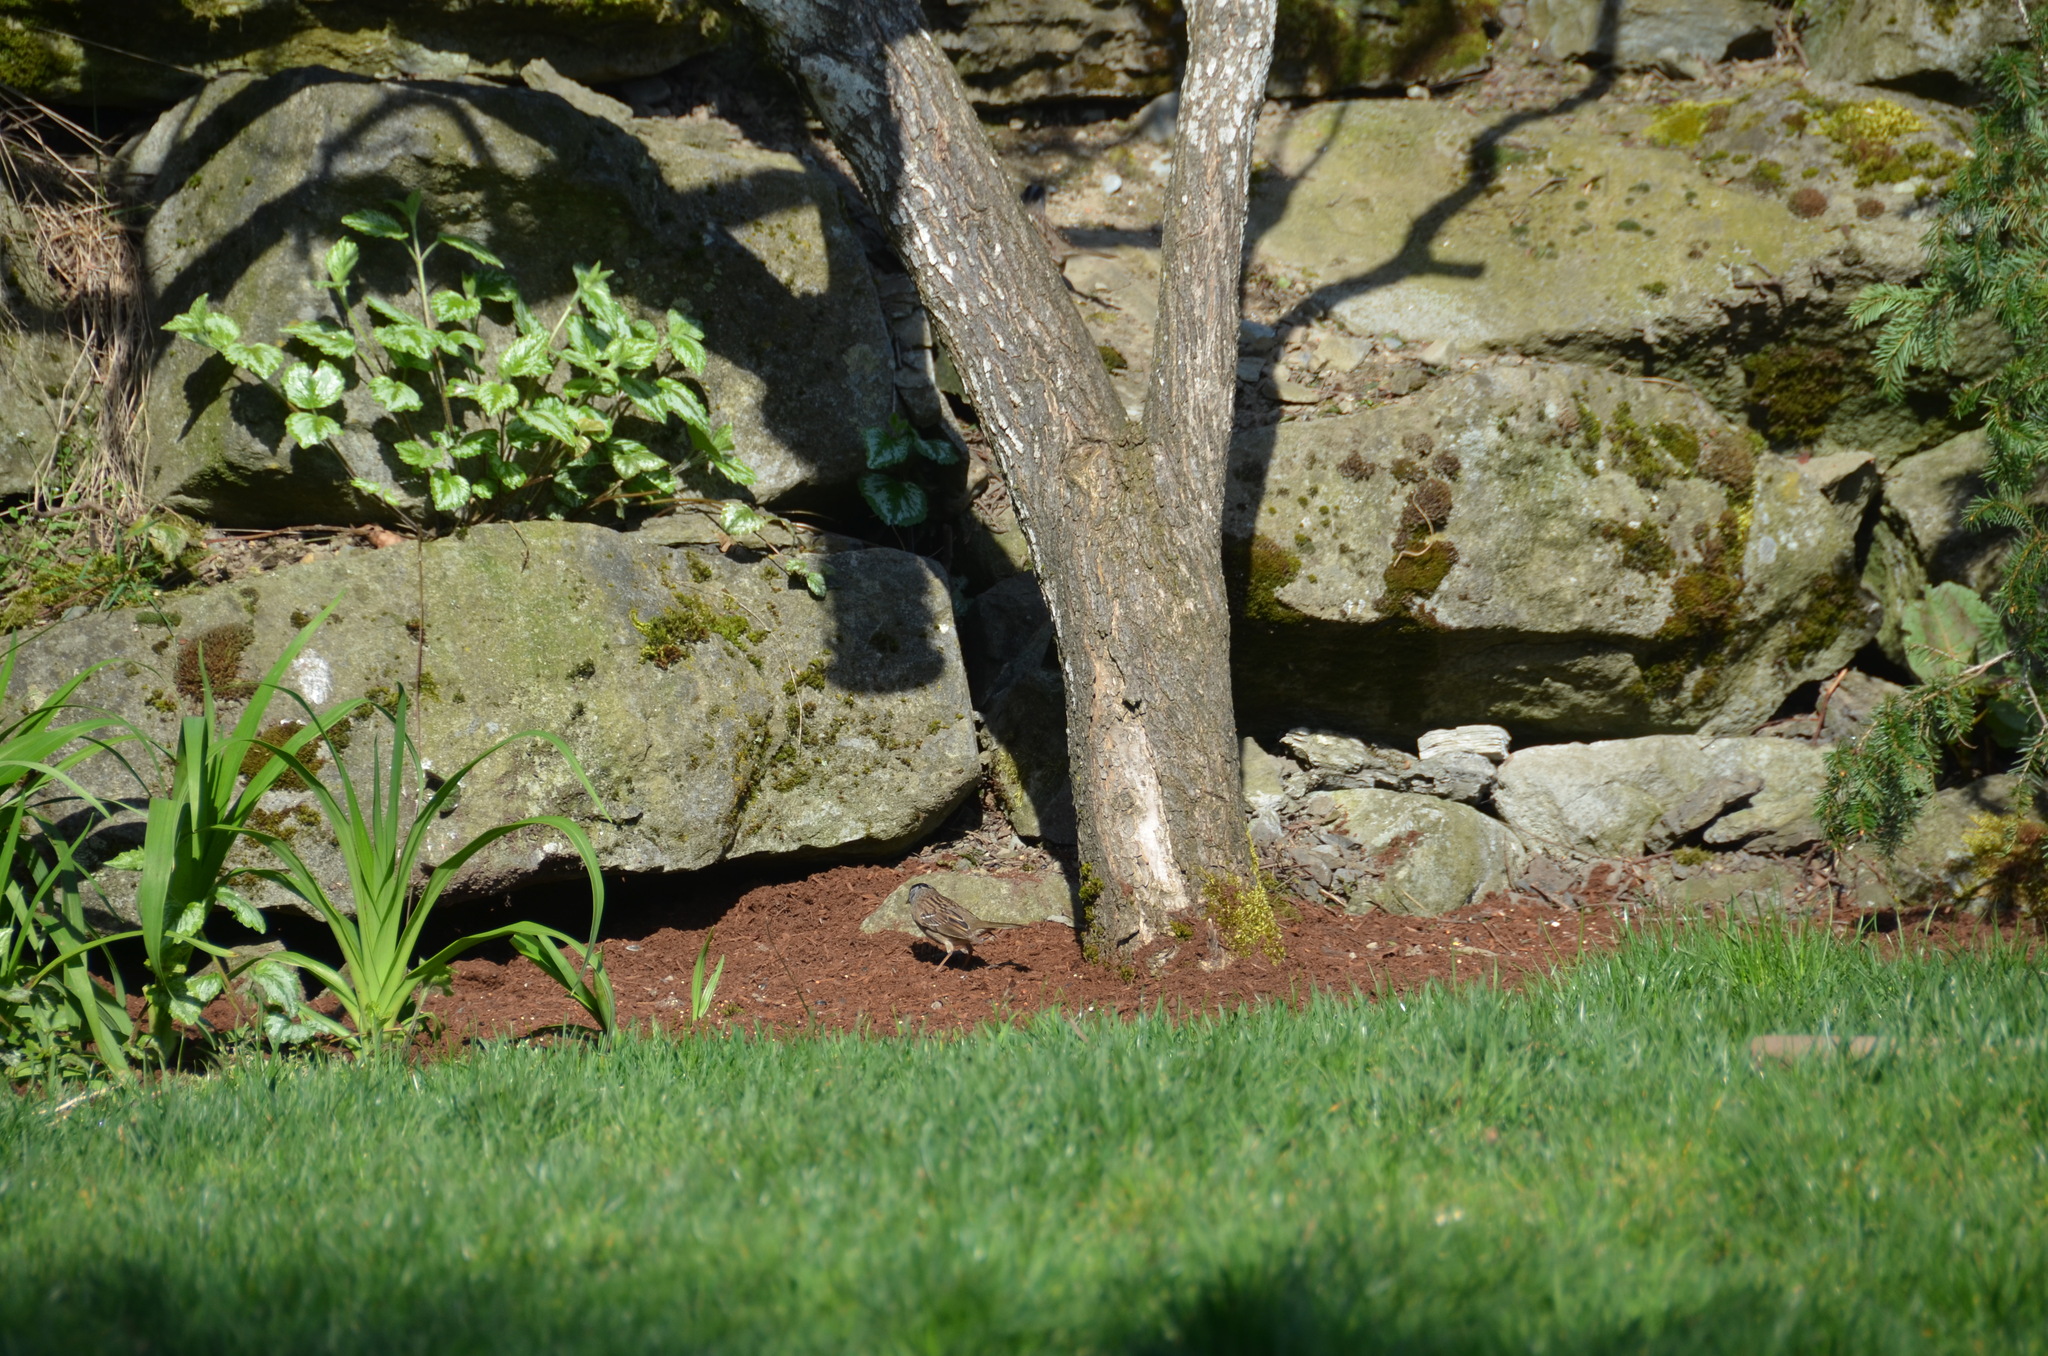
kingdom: Animalia
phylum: Chordata
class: Aves
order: Passeriformes
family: Passerellidae
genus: Zonotrichia
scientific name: Zonotrichia atricapilla
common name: Golden-crowned sparrow
